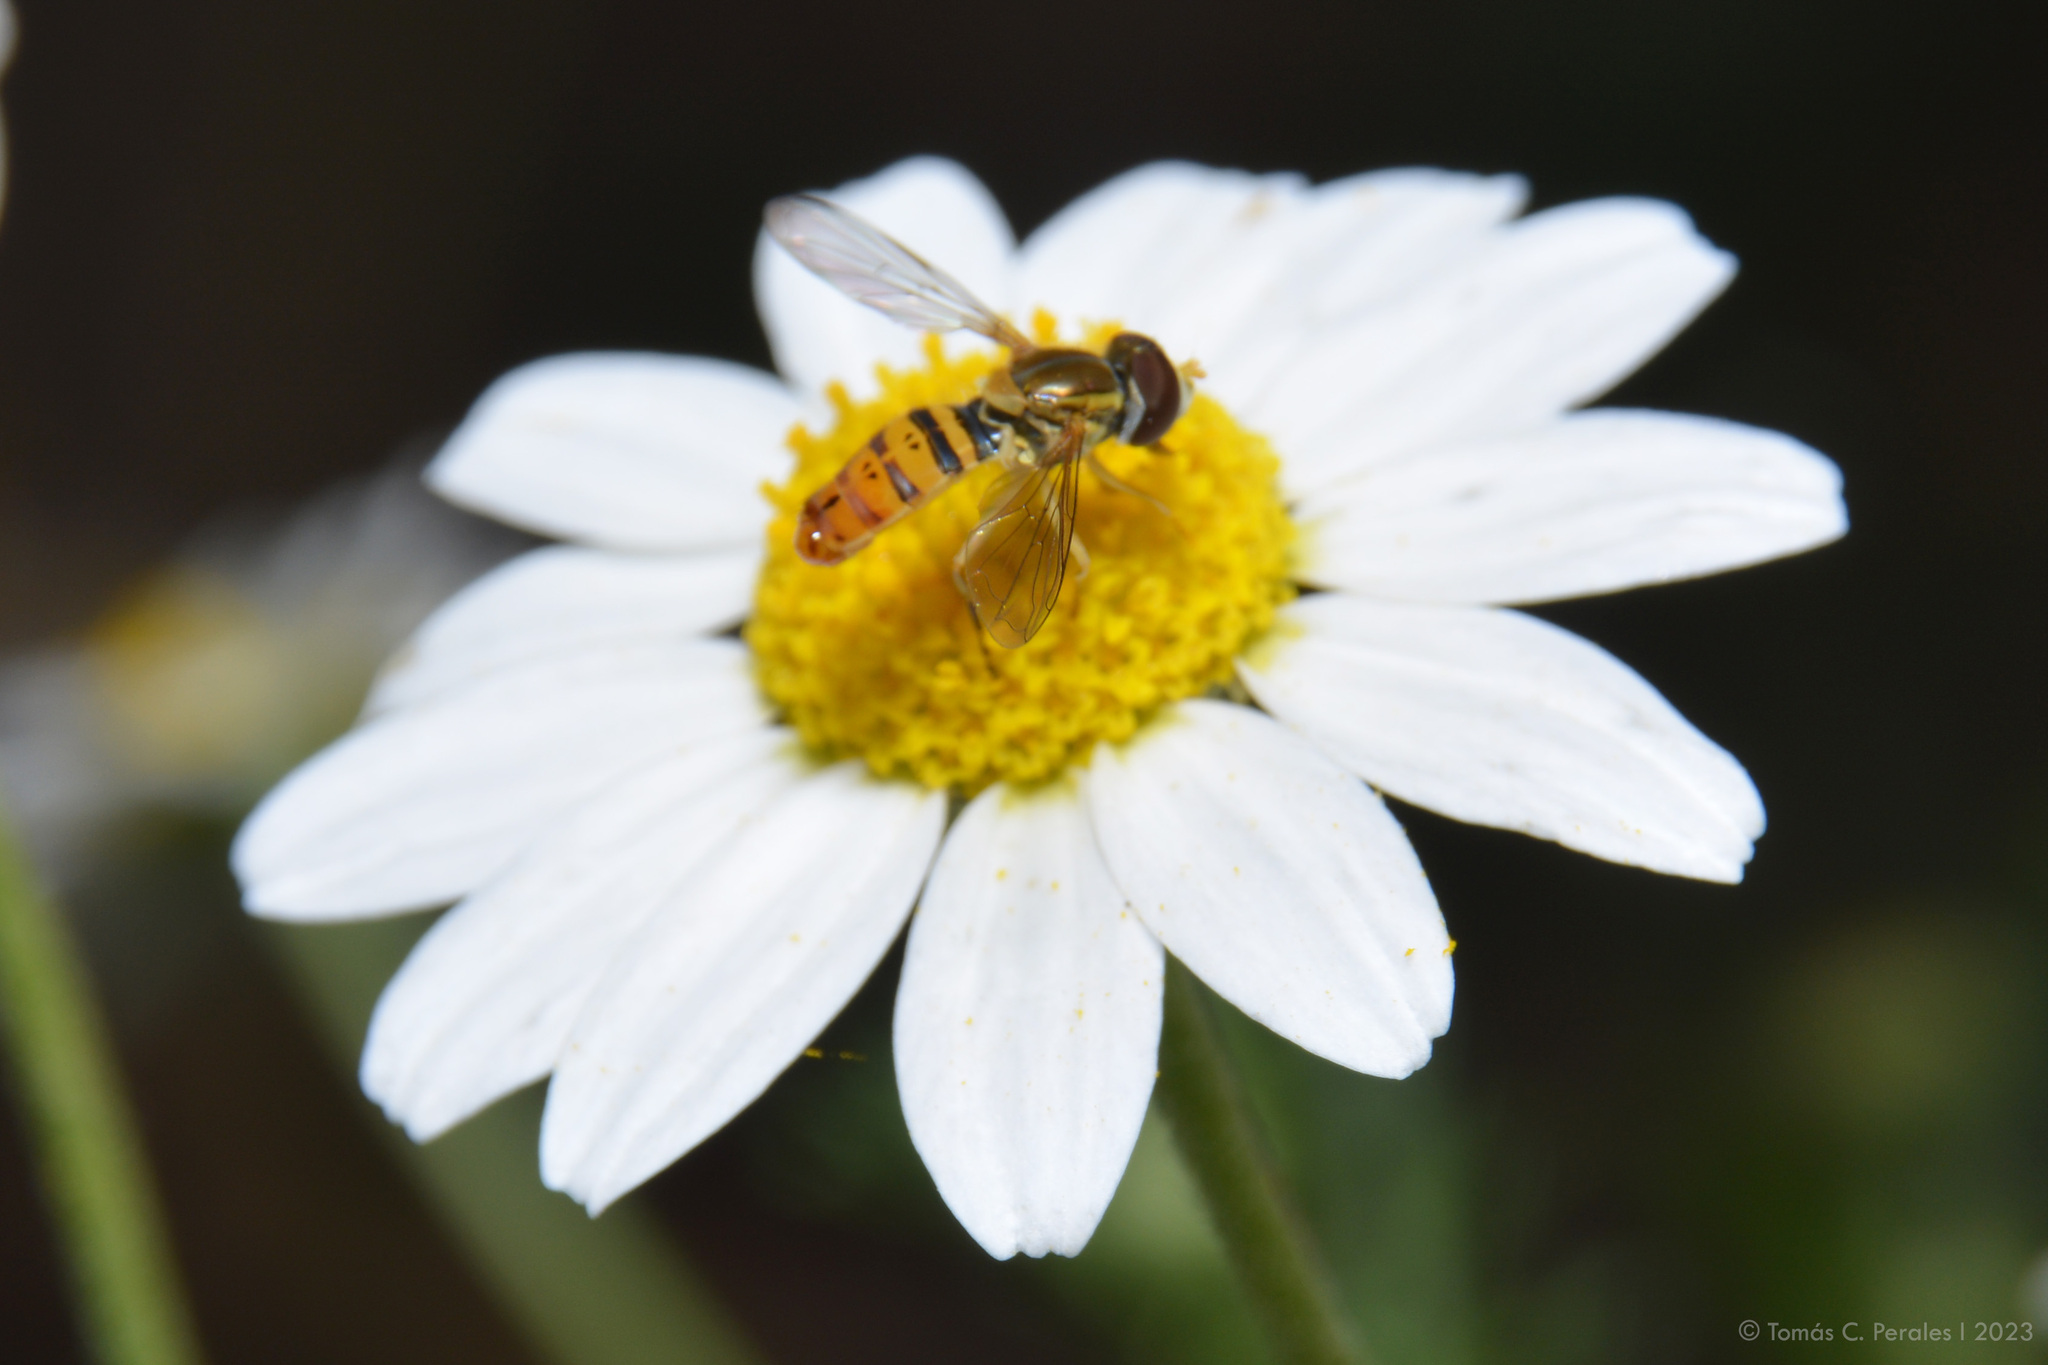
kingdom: Animalia
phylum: Arthropoda
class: Insecta
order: Diptera
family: Syrphidae
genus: Toxomerus
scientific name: Toxomerus
